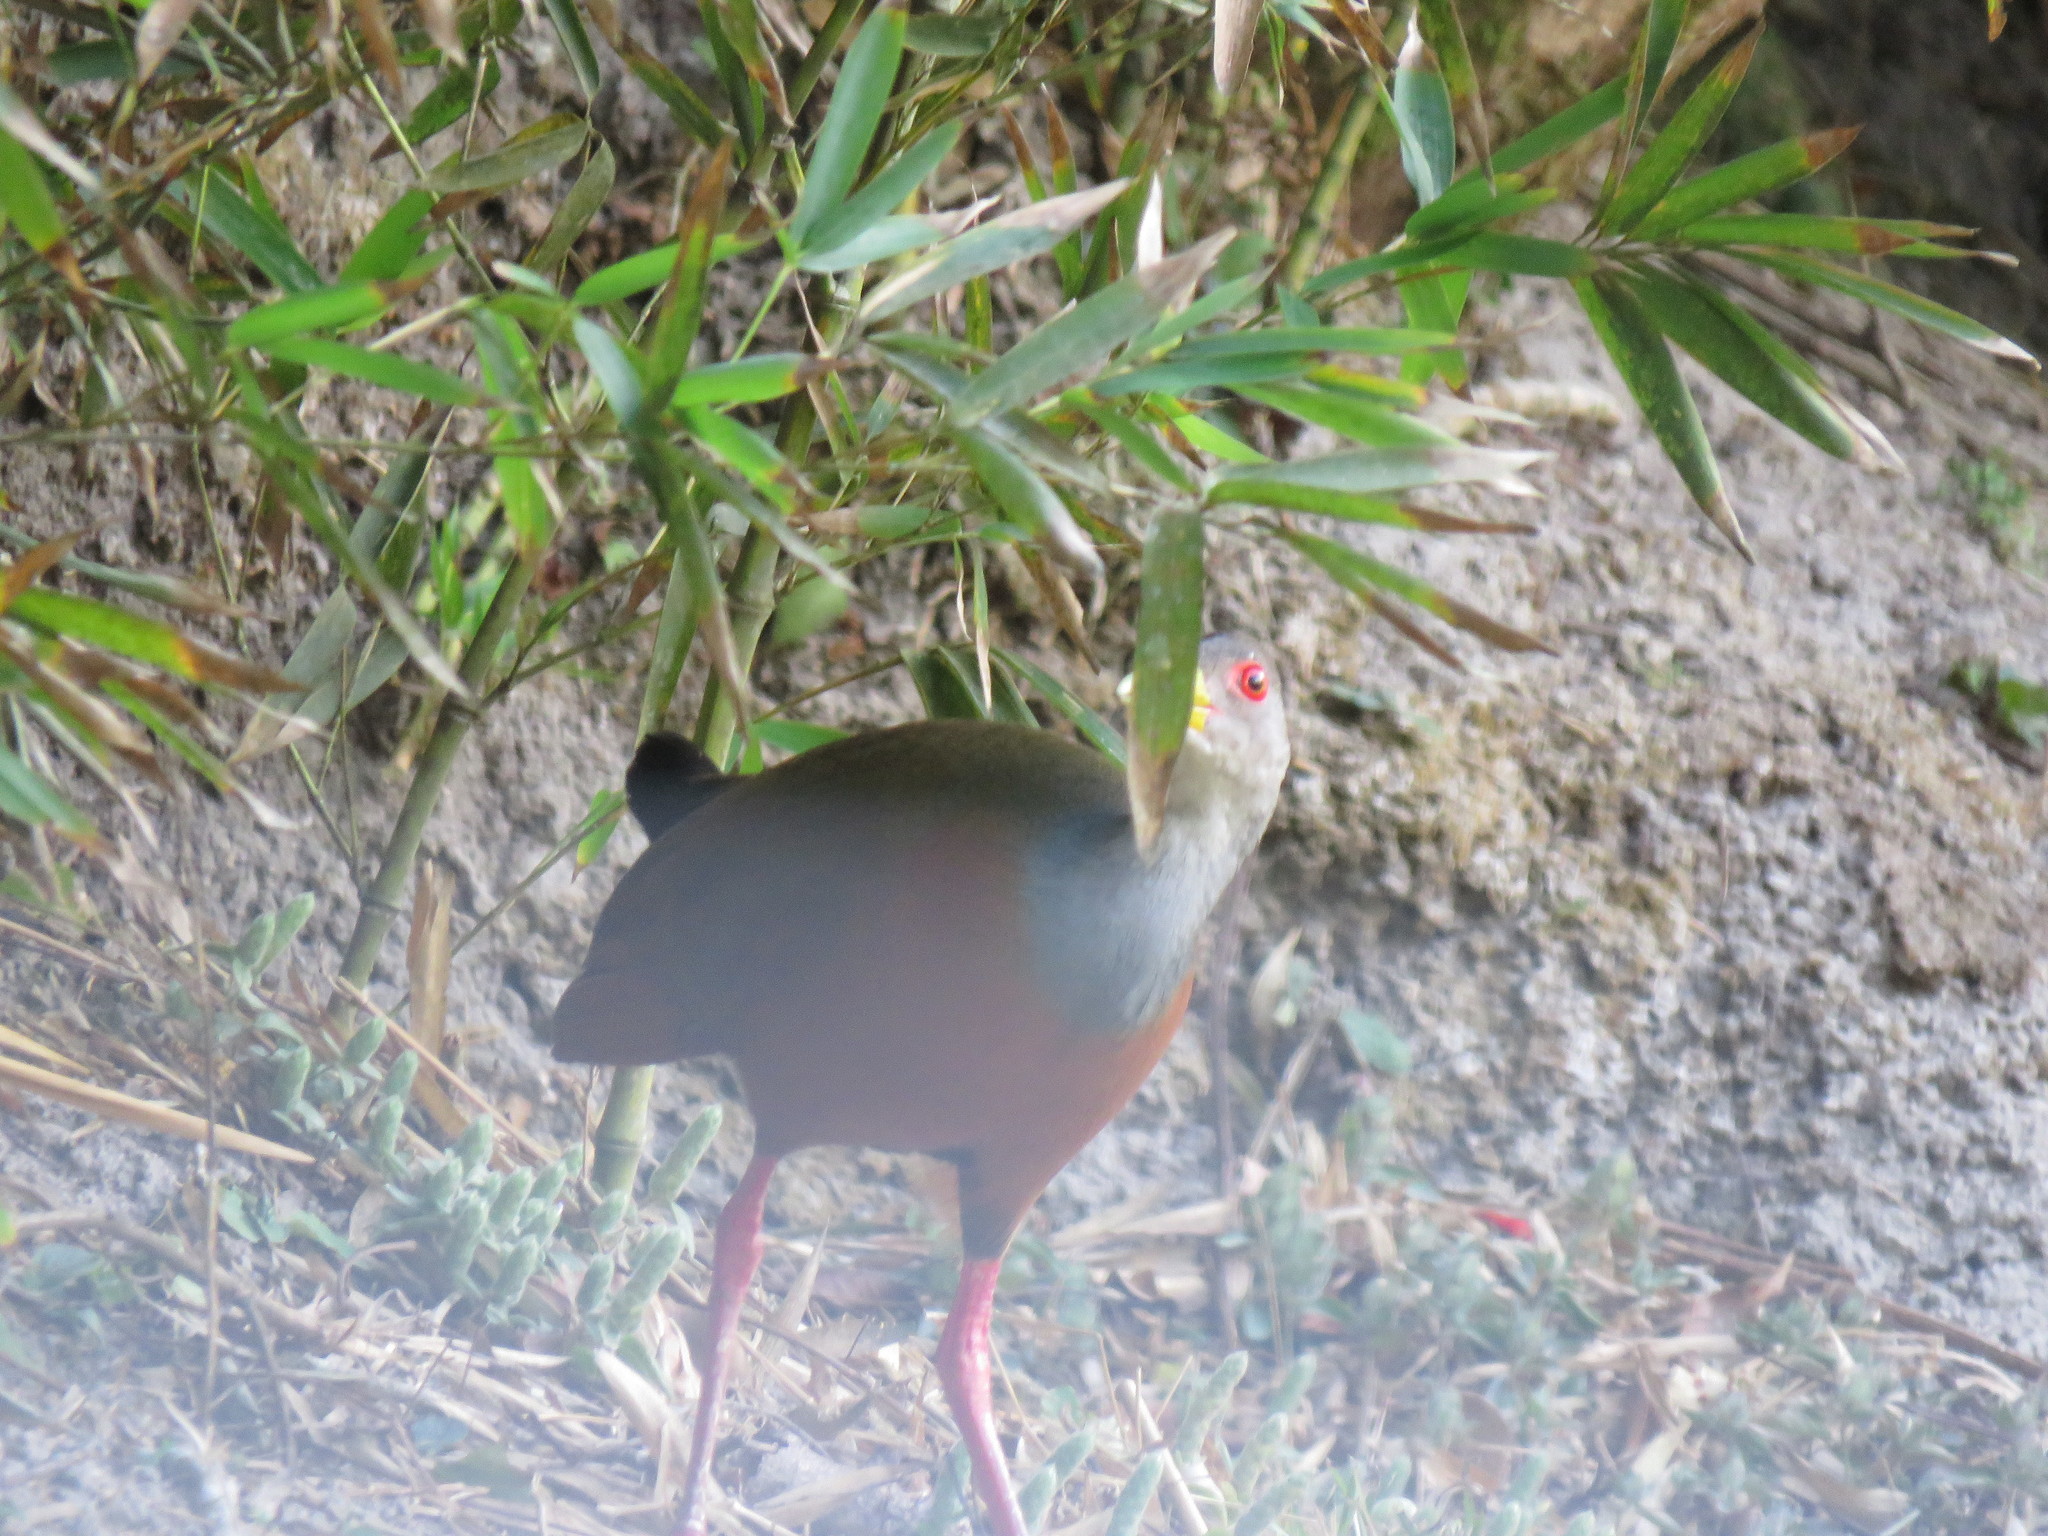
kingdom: Animalia
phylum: Chordata
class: Aves
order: Gruiformes
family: Rallidae
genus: Aramides
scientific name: Aramides cajanea
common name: Gray-necked wood-rail
